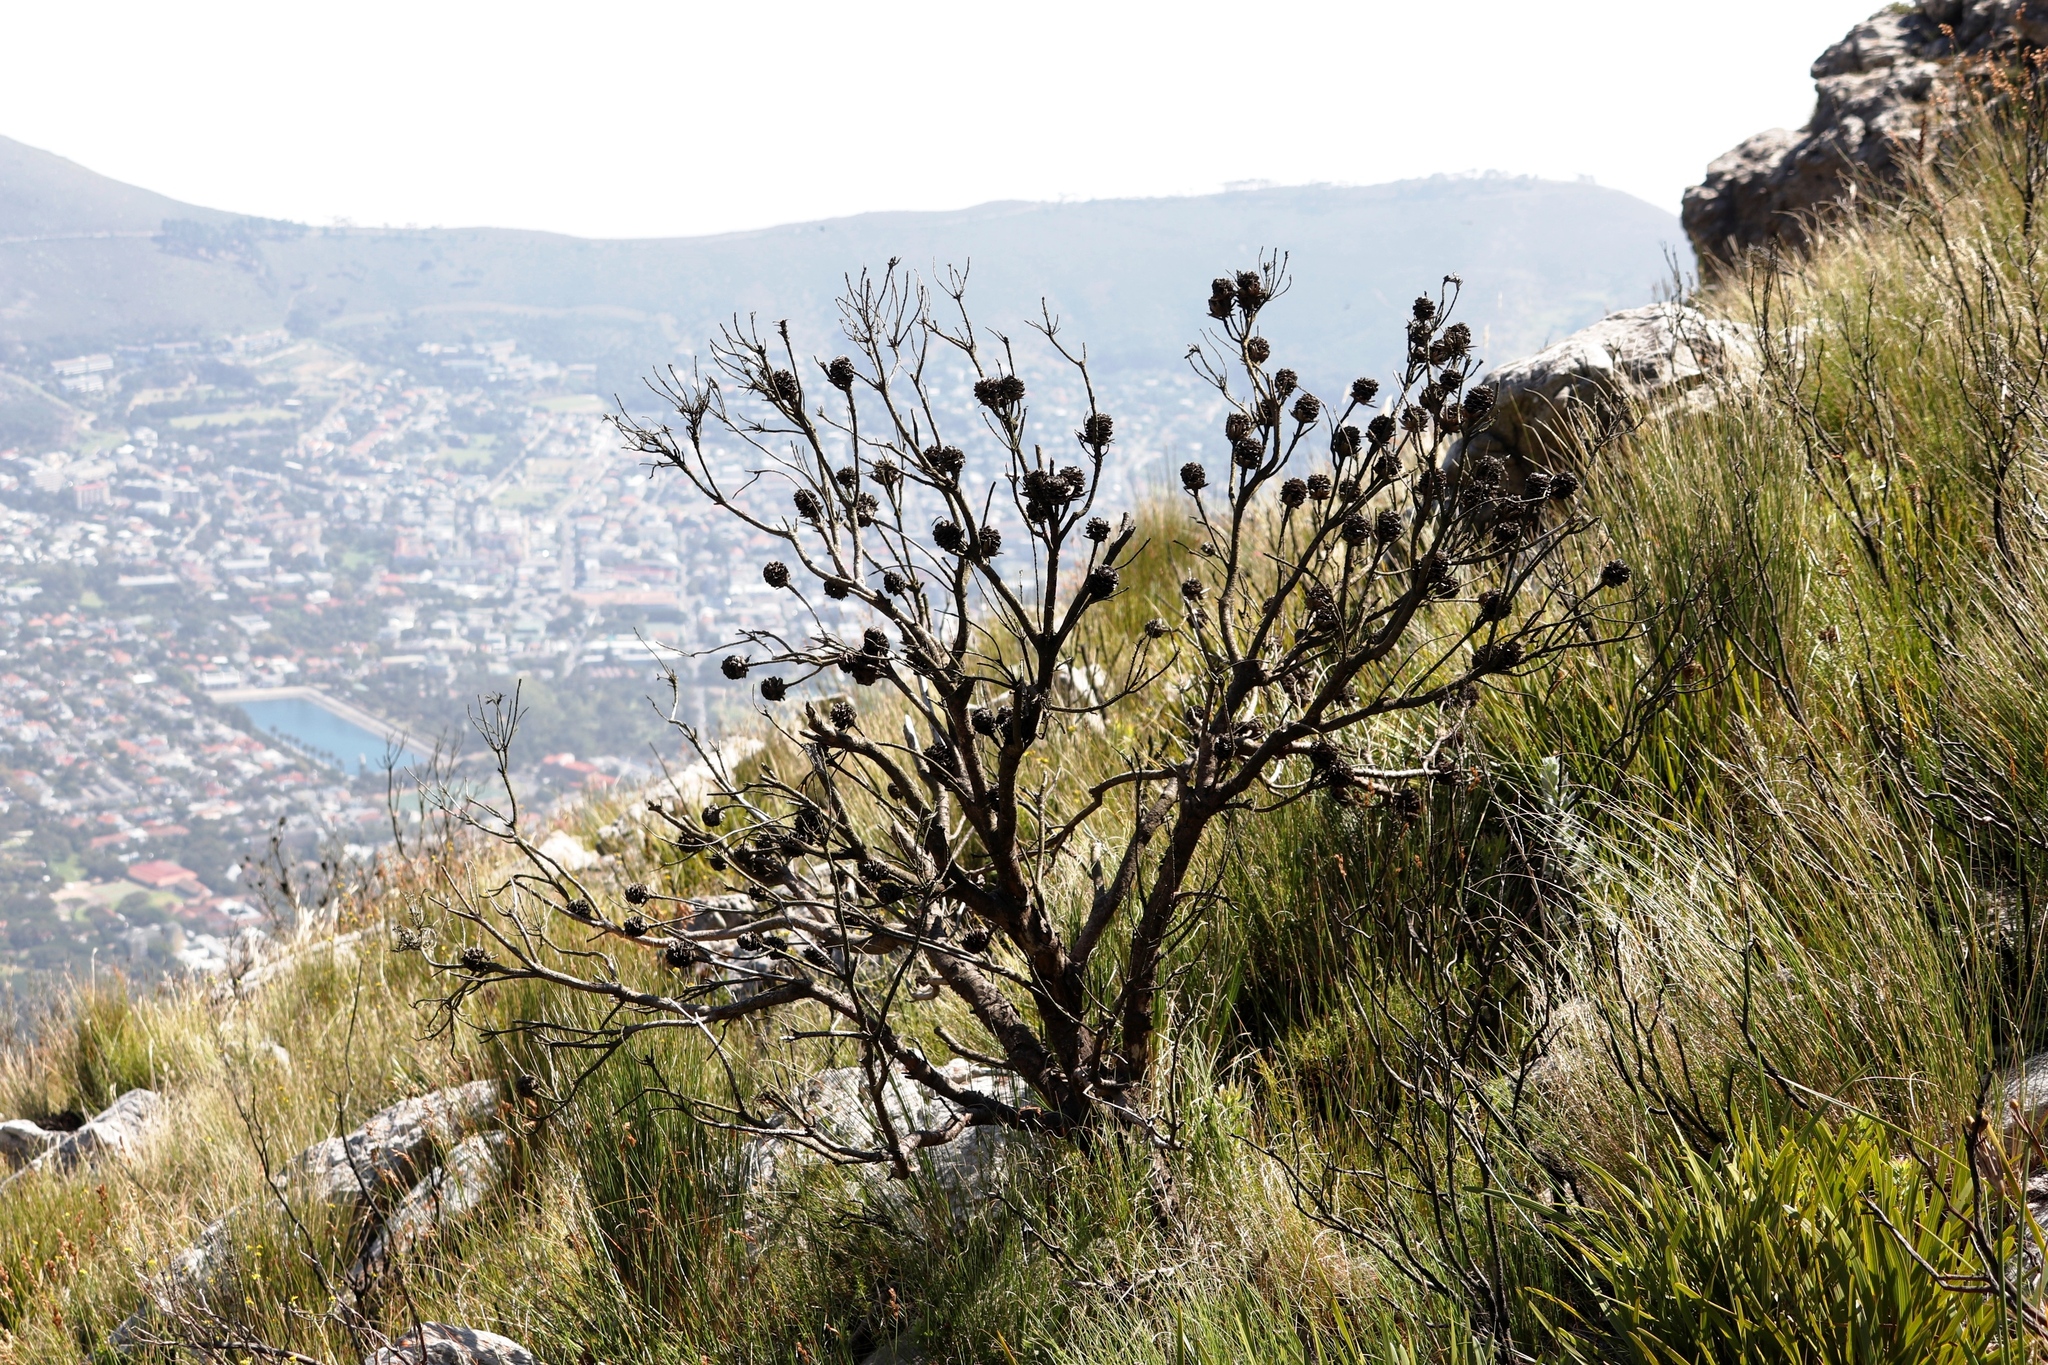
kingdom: Plantae
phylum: Tracheophyta
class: Magnoliopsida
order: Proteales
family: Proteaceae
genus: Leucadendron
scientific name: Leucadendron xanthoconus
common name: Sickle-leaf conebush
